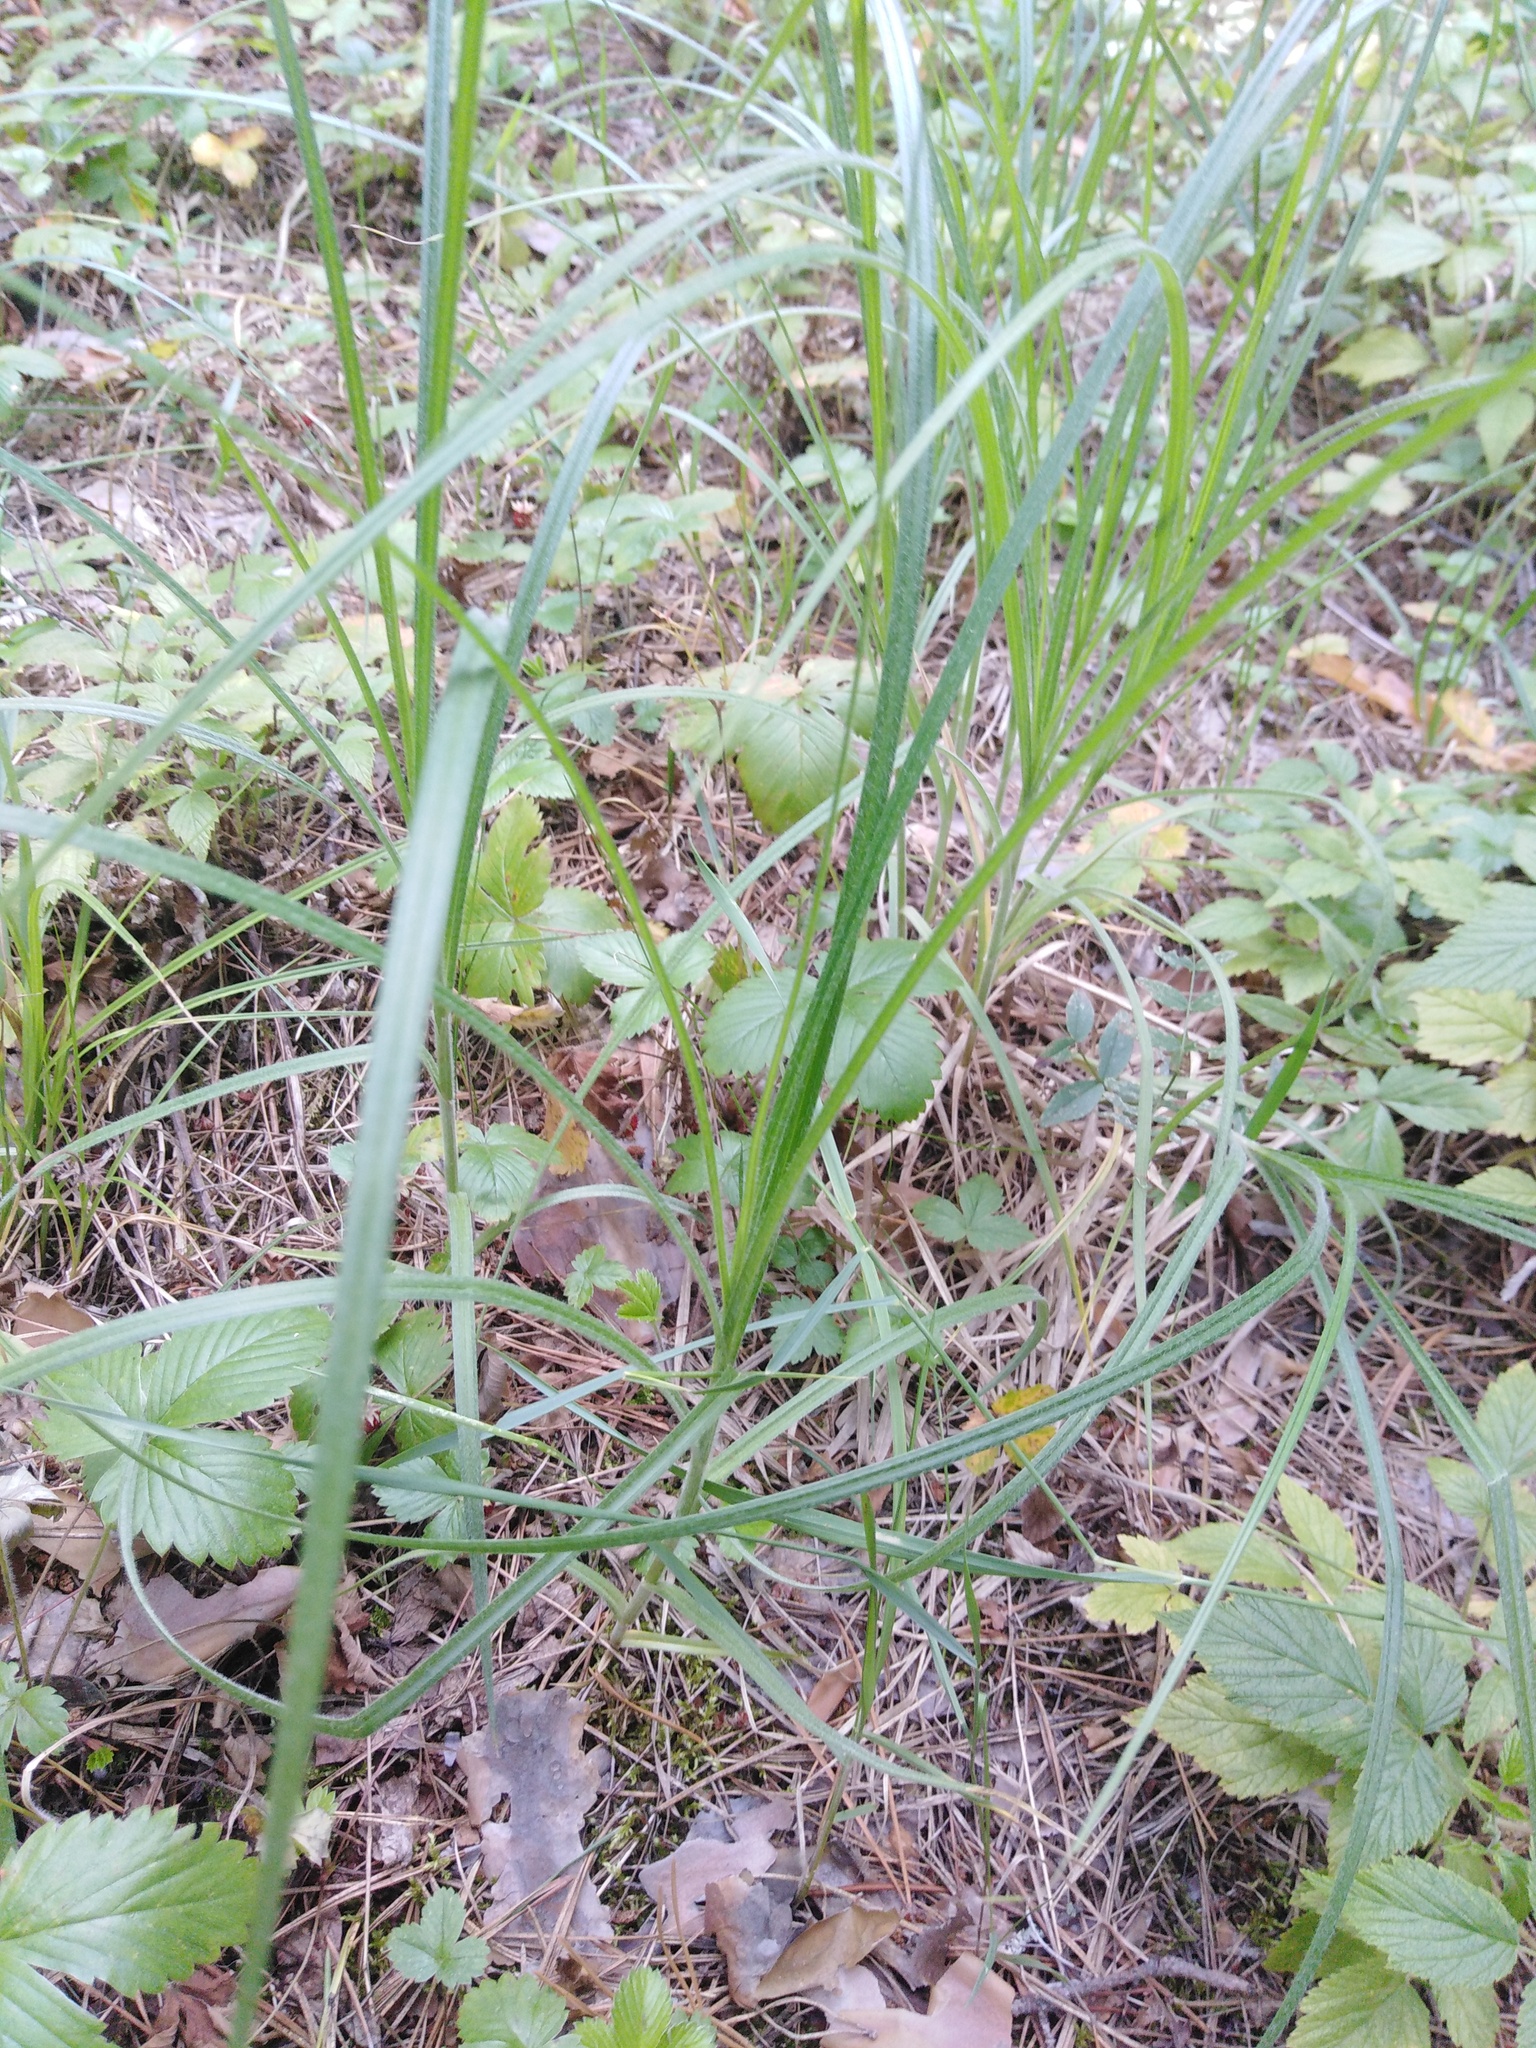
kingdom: Plantae
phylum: Tracheophyta
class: Liliopsida
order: Poales
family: Cyperaceae
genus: Carex
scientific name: Carex hirta
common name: Hairy sedge
